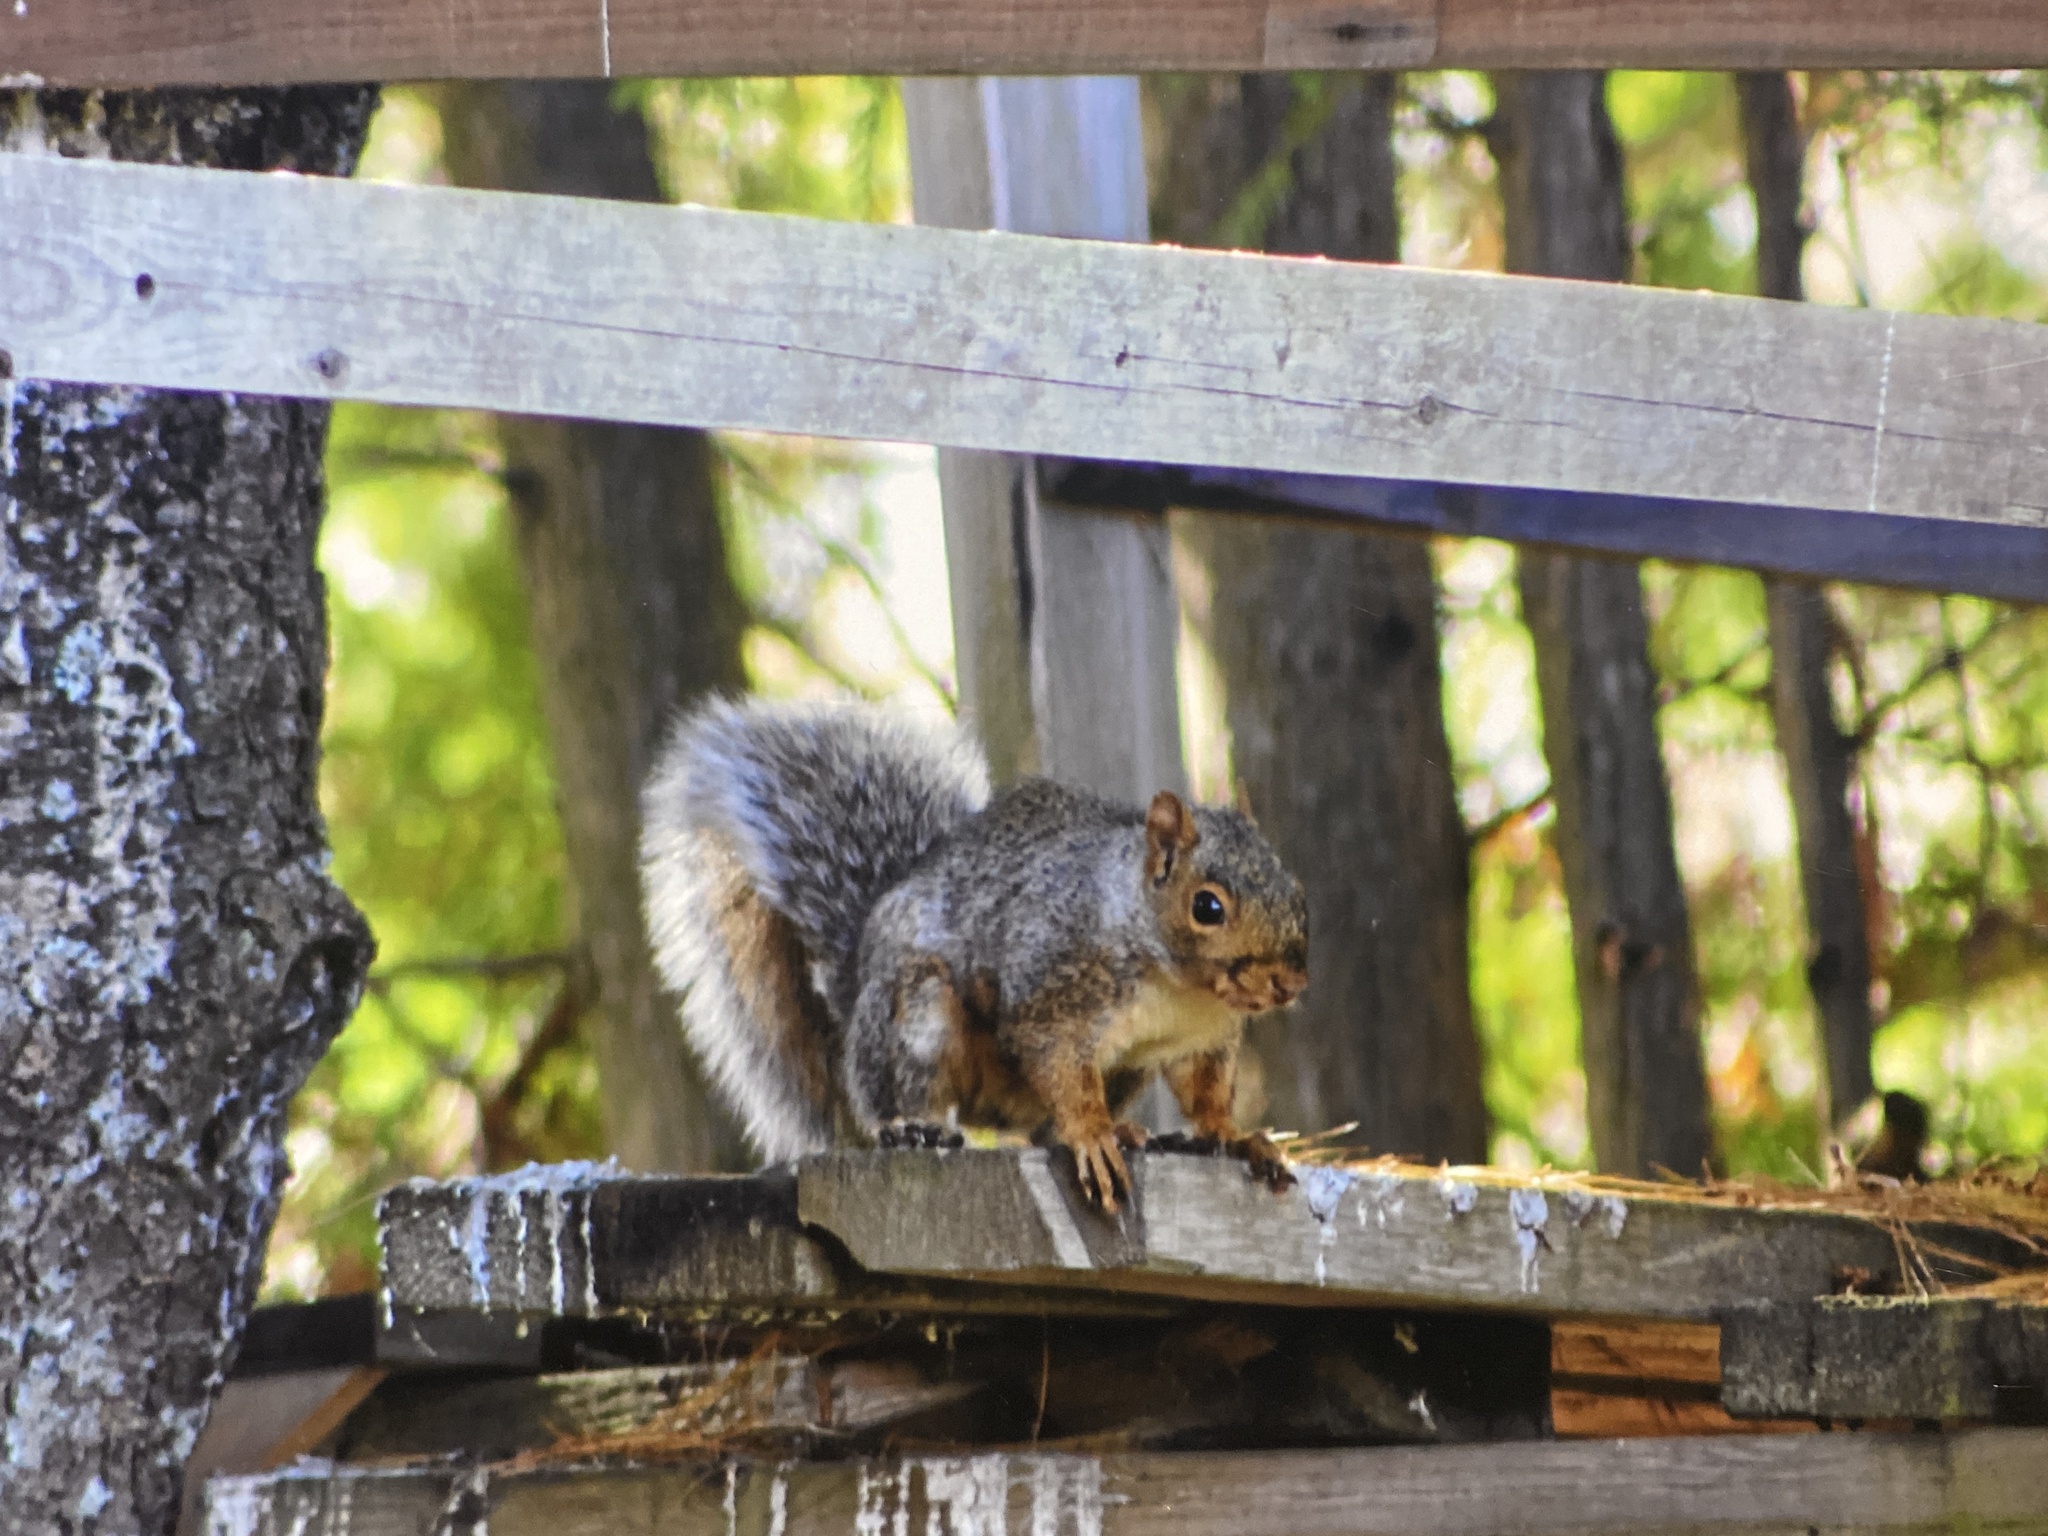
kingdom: Animalia
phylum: Chordata
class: Mammalia
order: Rodentia
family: Sciuridae
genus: Sciurus
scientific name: Sciurus carolinensis
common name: Eastern gray squirrel
